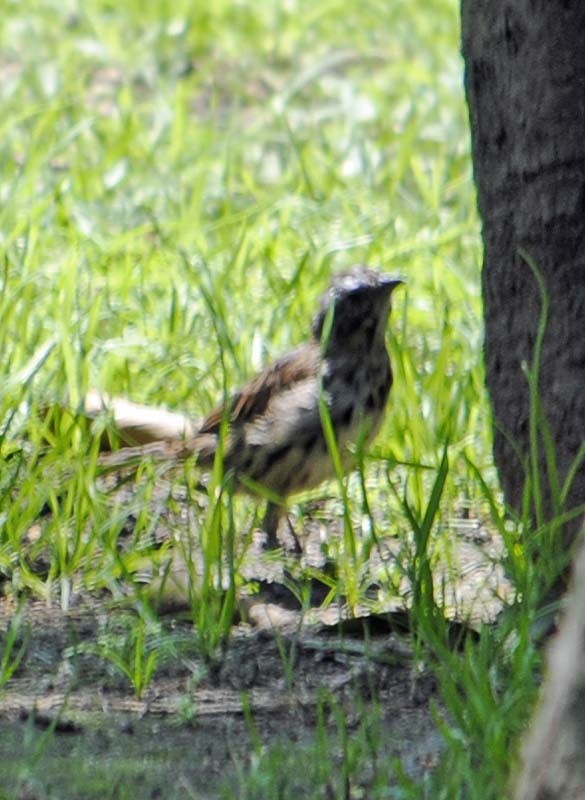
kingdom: Animalia
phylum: Chordata
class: Aves
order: Passeriformes
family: Passerellidae
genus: Melospiza
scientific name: Melospiza melodia
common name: Song sparrow
